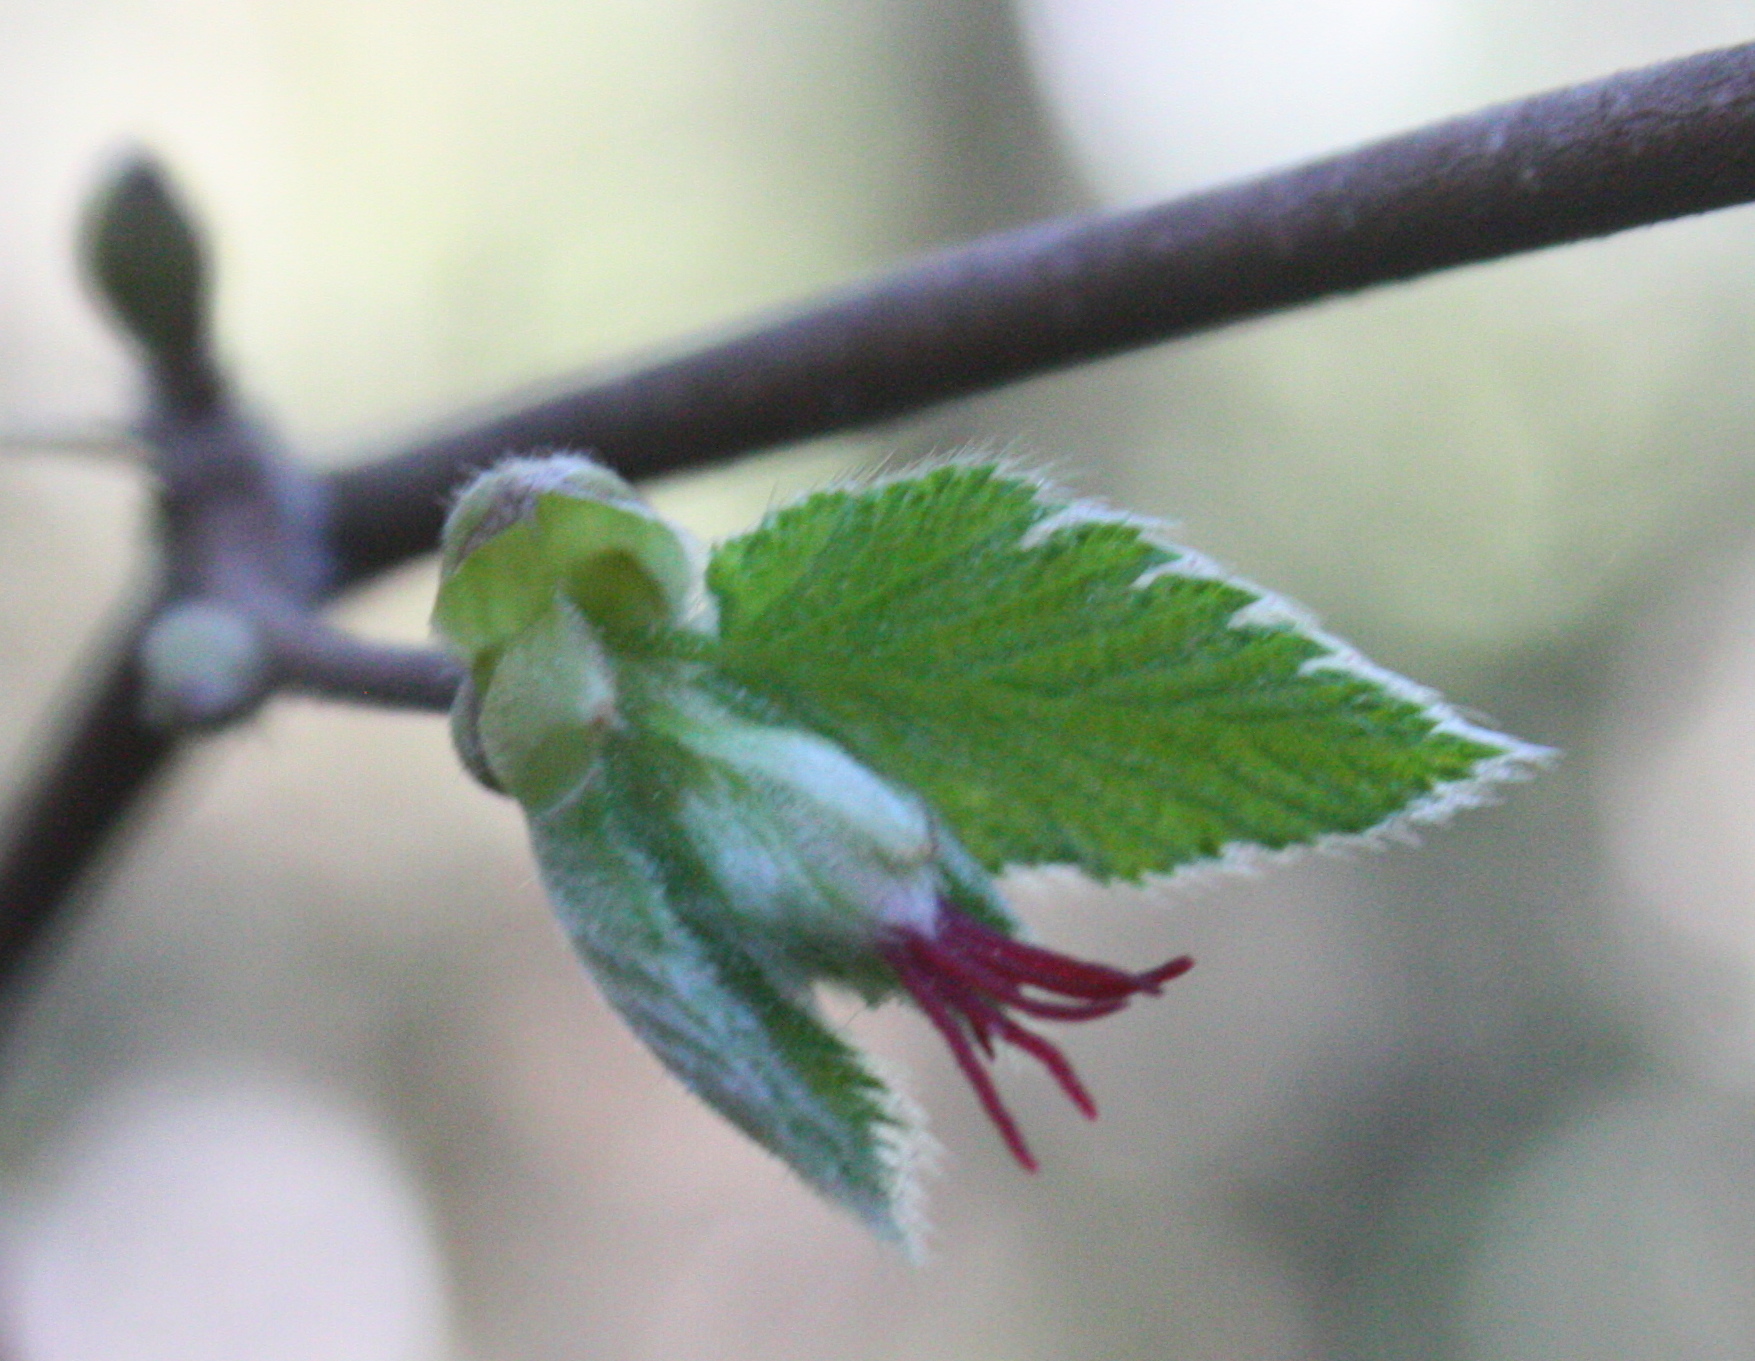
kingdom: Plantae
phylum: Tracheophyta
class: Magnoliopsida
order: Fagales
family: Betulaceae
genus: Corylus
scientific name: Corylus cornuta
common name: Beaked hazel
